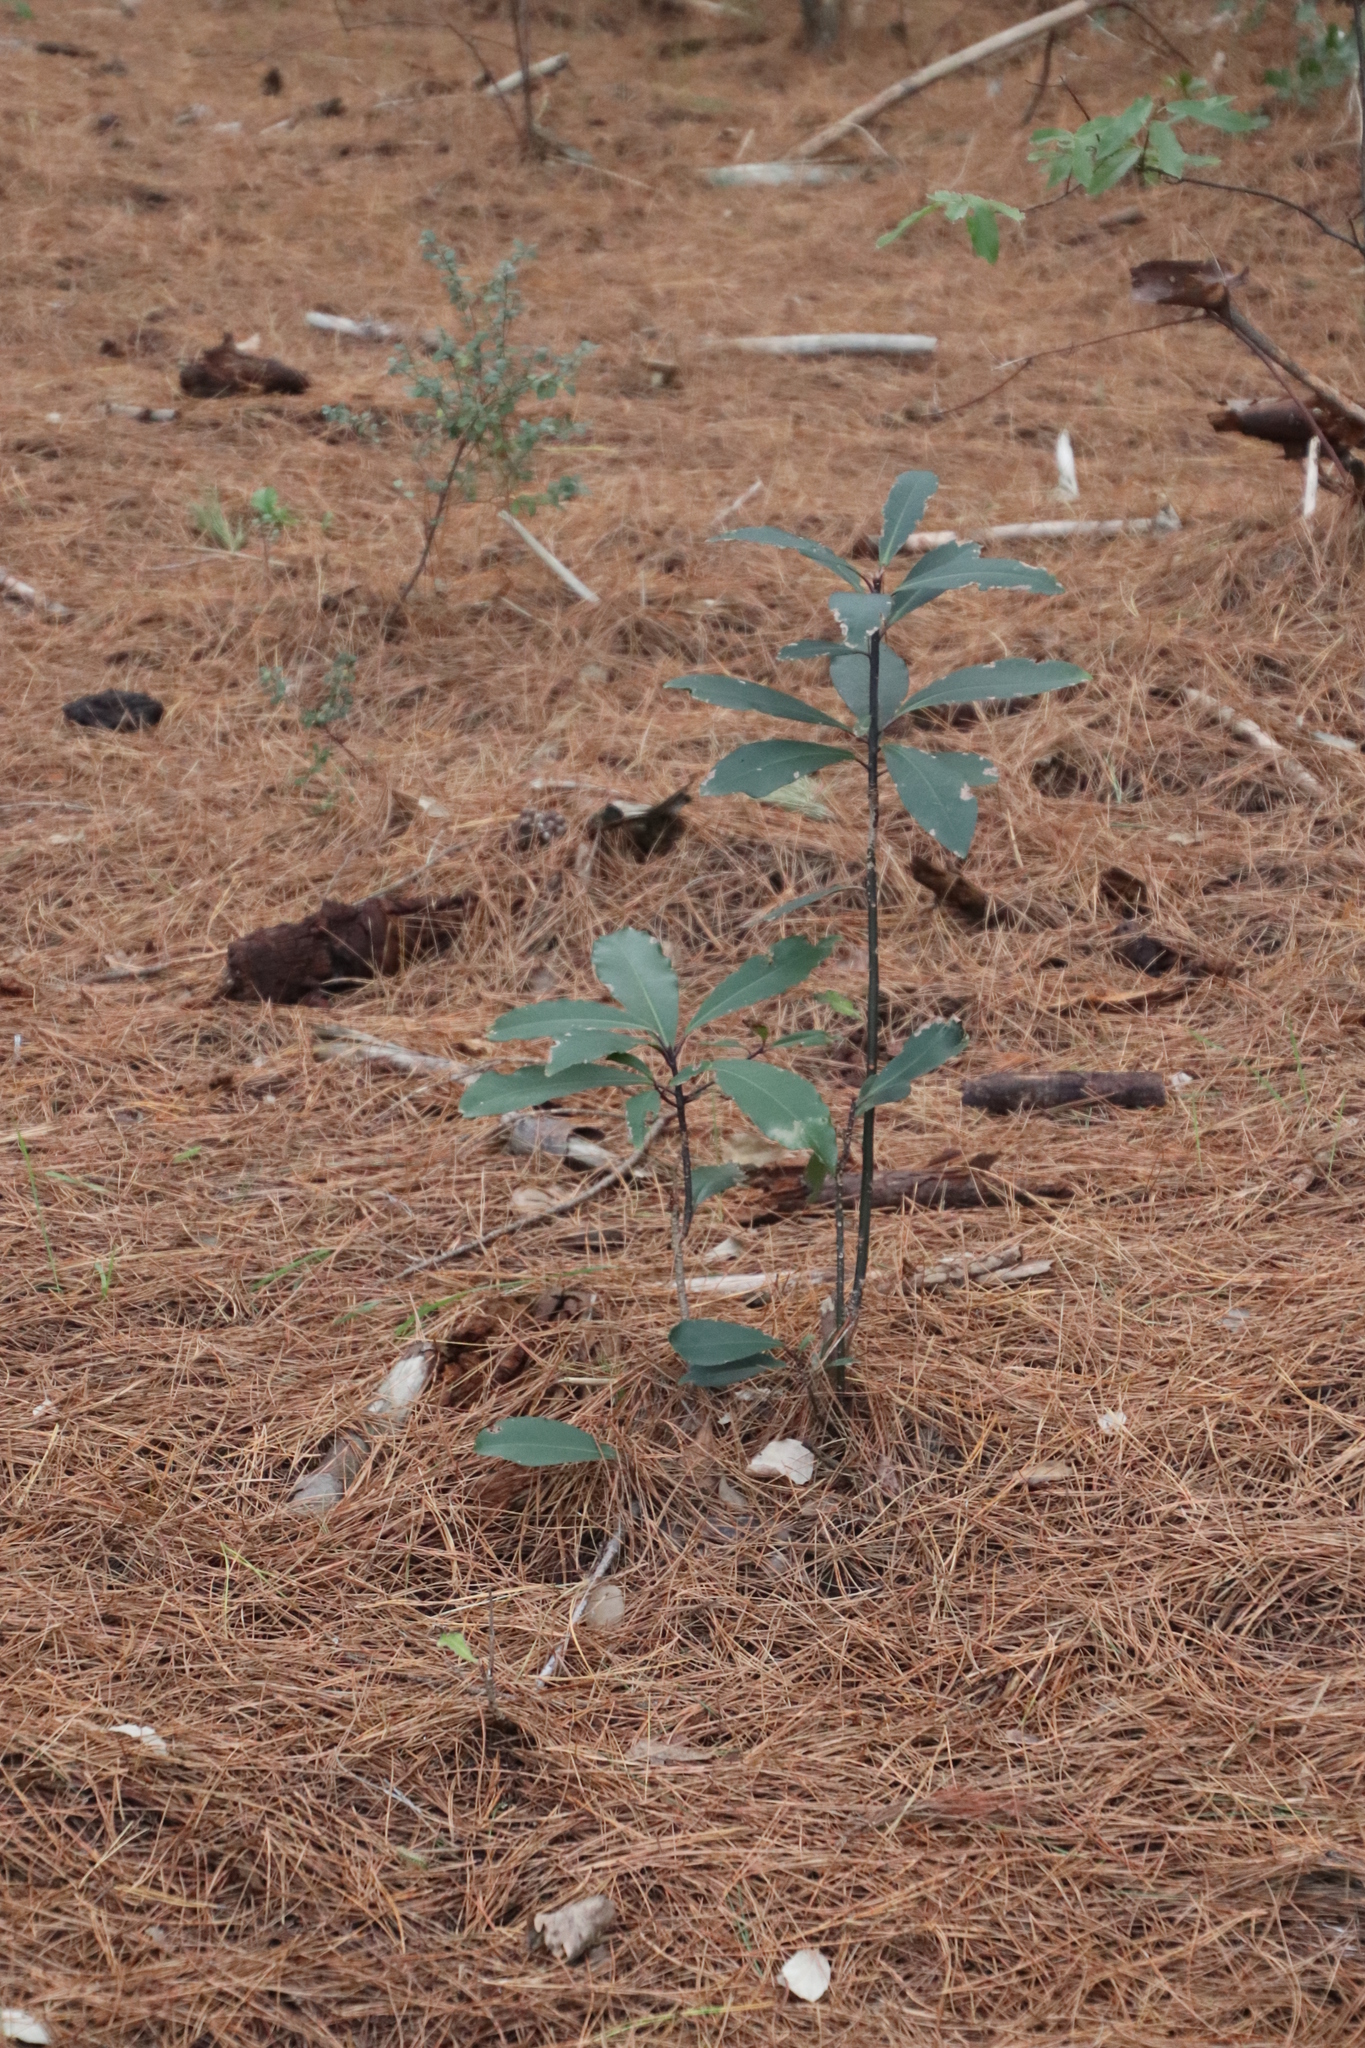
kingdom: Plantae
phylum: Tracheophyta
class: Magnoliopsida
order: Ericales
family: Primulaceae
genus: Myrsine
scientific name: Myrsine melanophloeos
